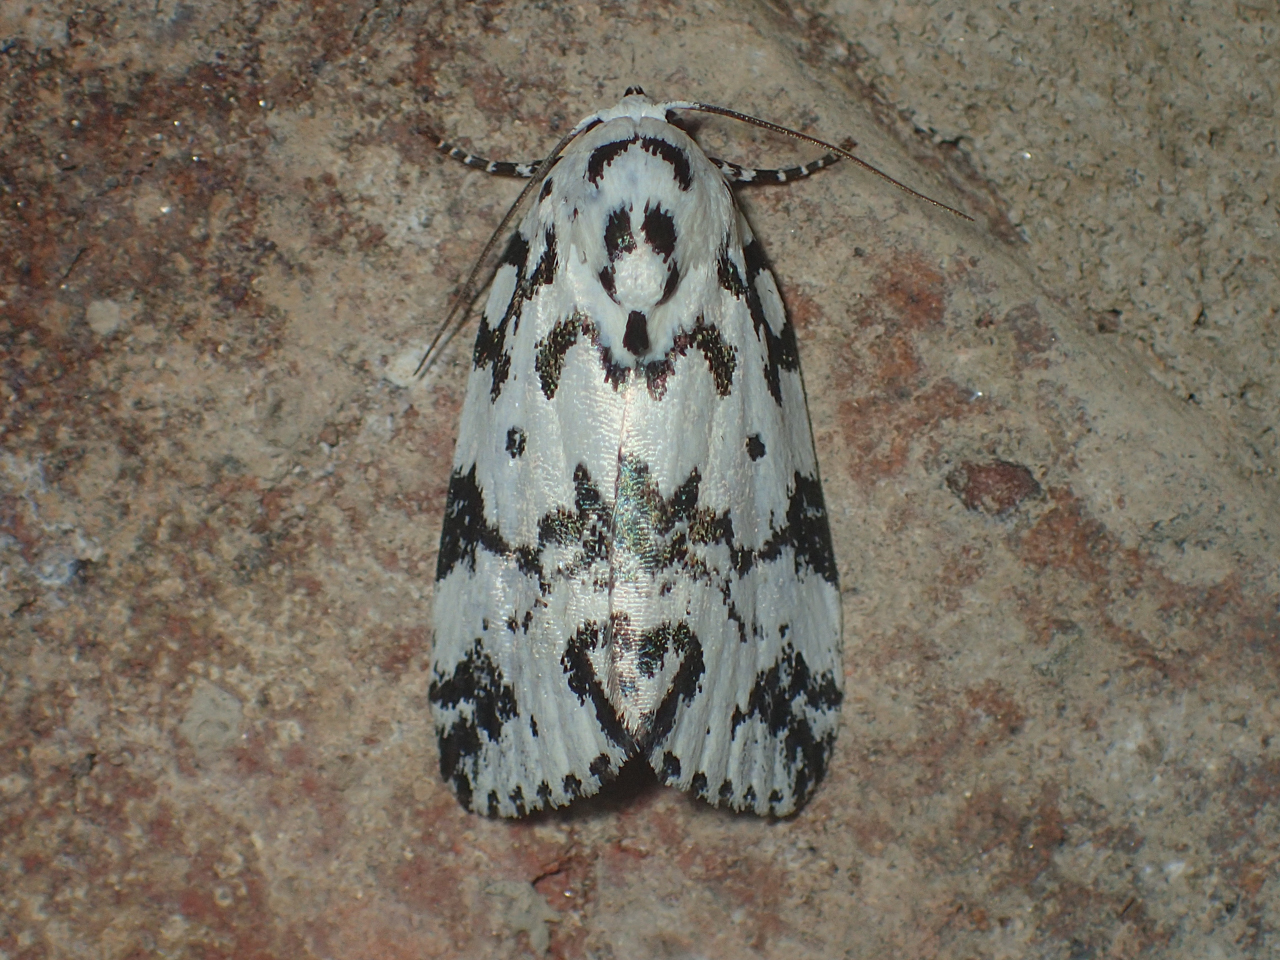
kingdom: Animalia
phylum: Arthropoda
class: Insecta
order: Lepidoptera
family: Noctuidae
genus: Polygrammate
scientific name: Polygrammate hebraeicum
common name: Hebrew moth
